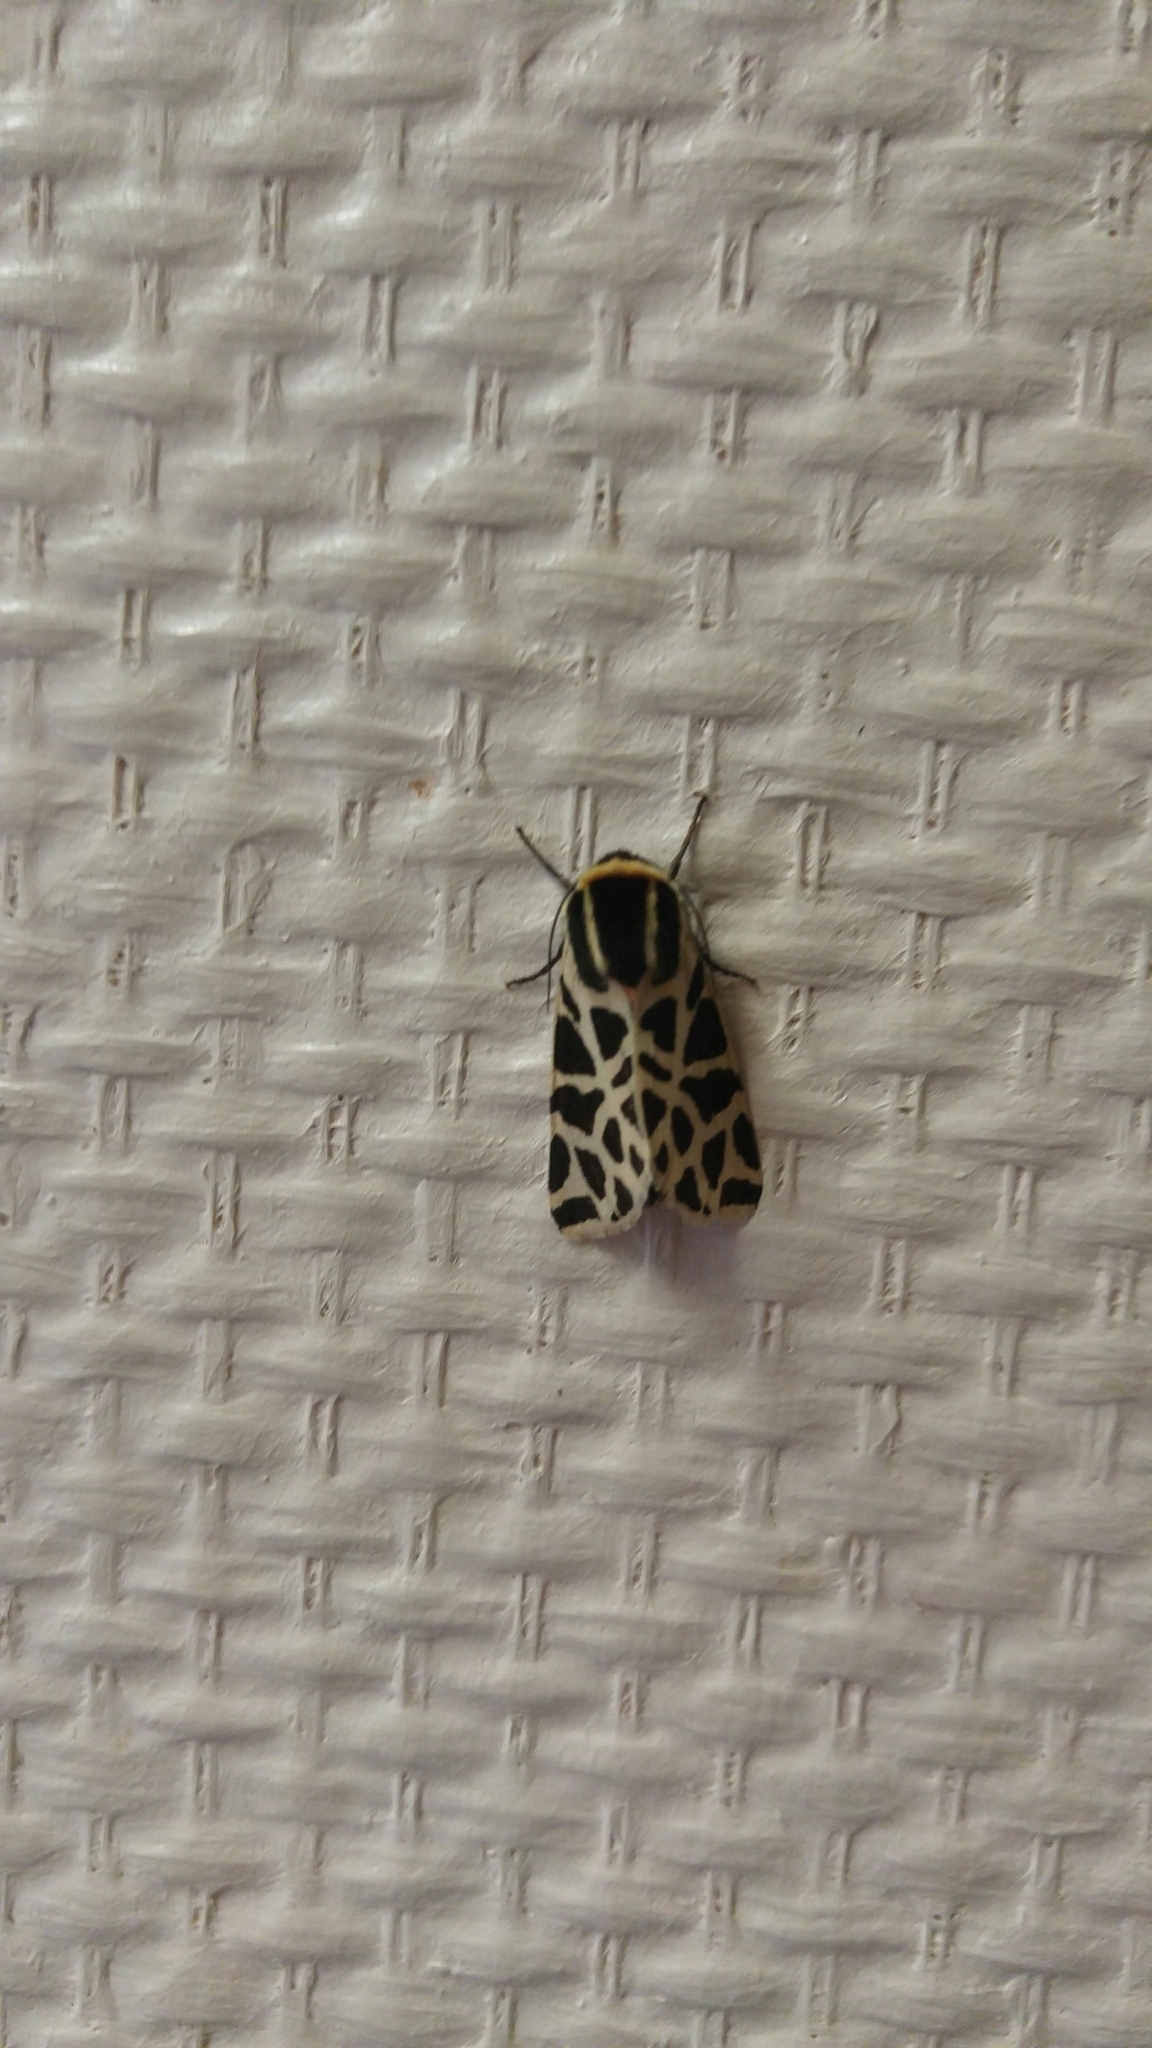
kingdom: Animalia
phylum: Arthropoda
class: Insecta
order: Lepidoptera
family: Erebidae
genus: Cymbalophora
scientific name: Cymbalophora pudica
